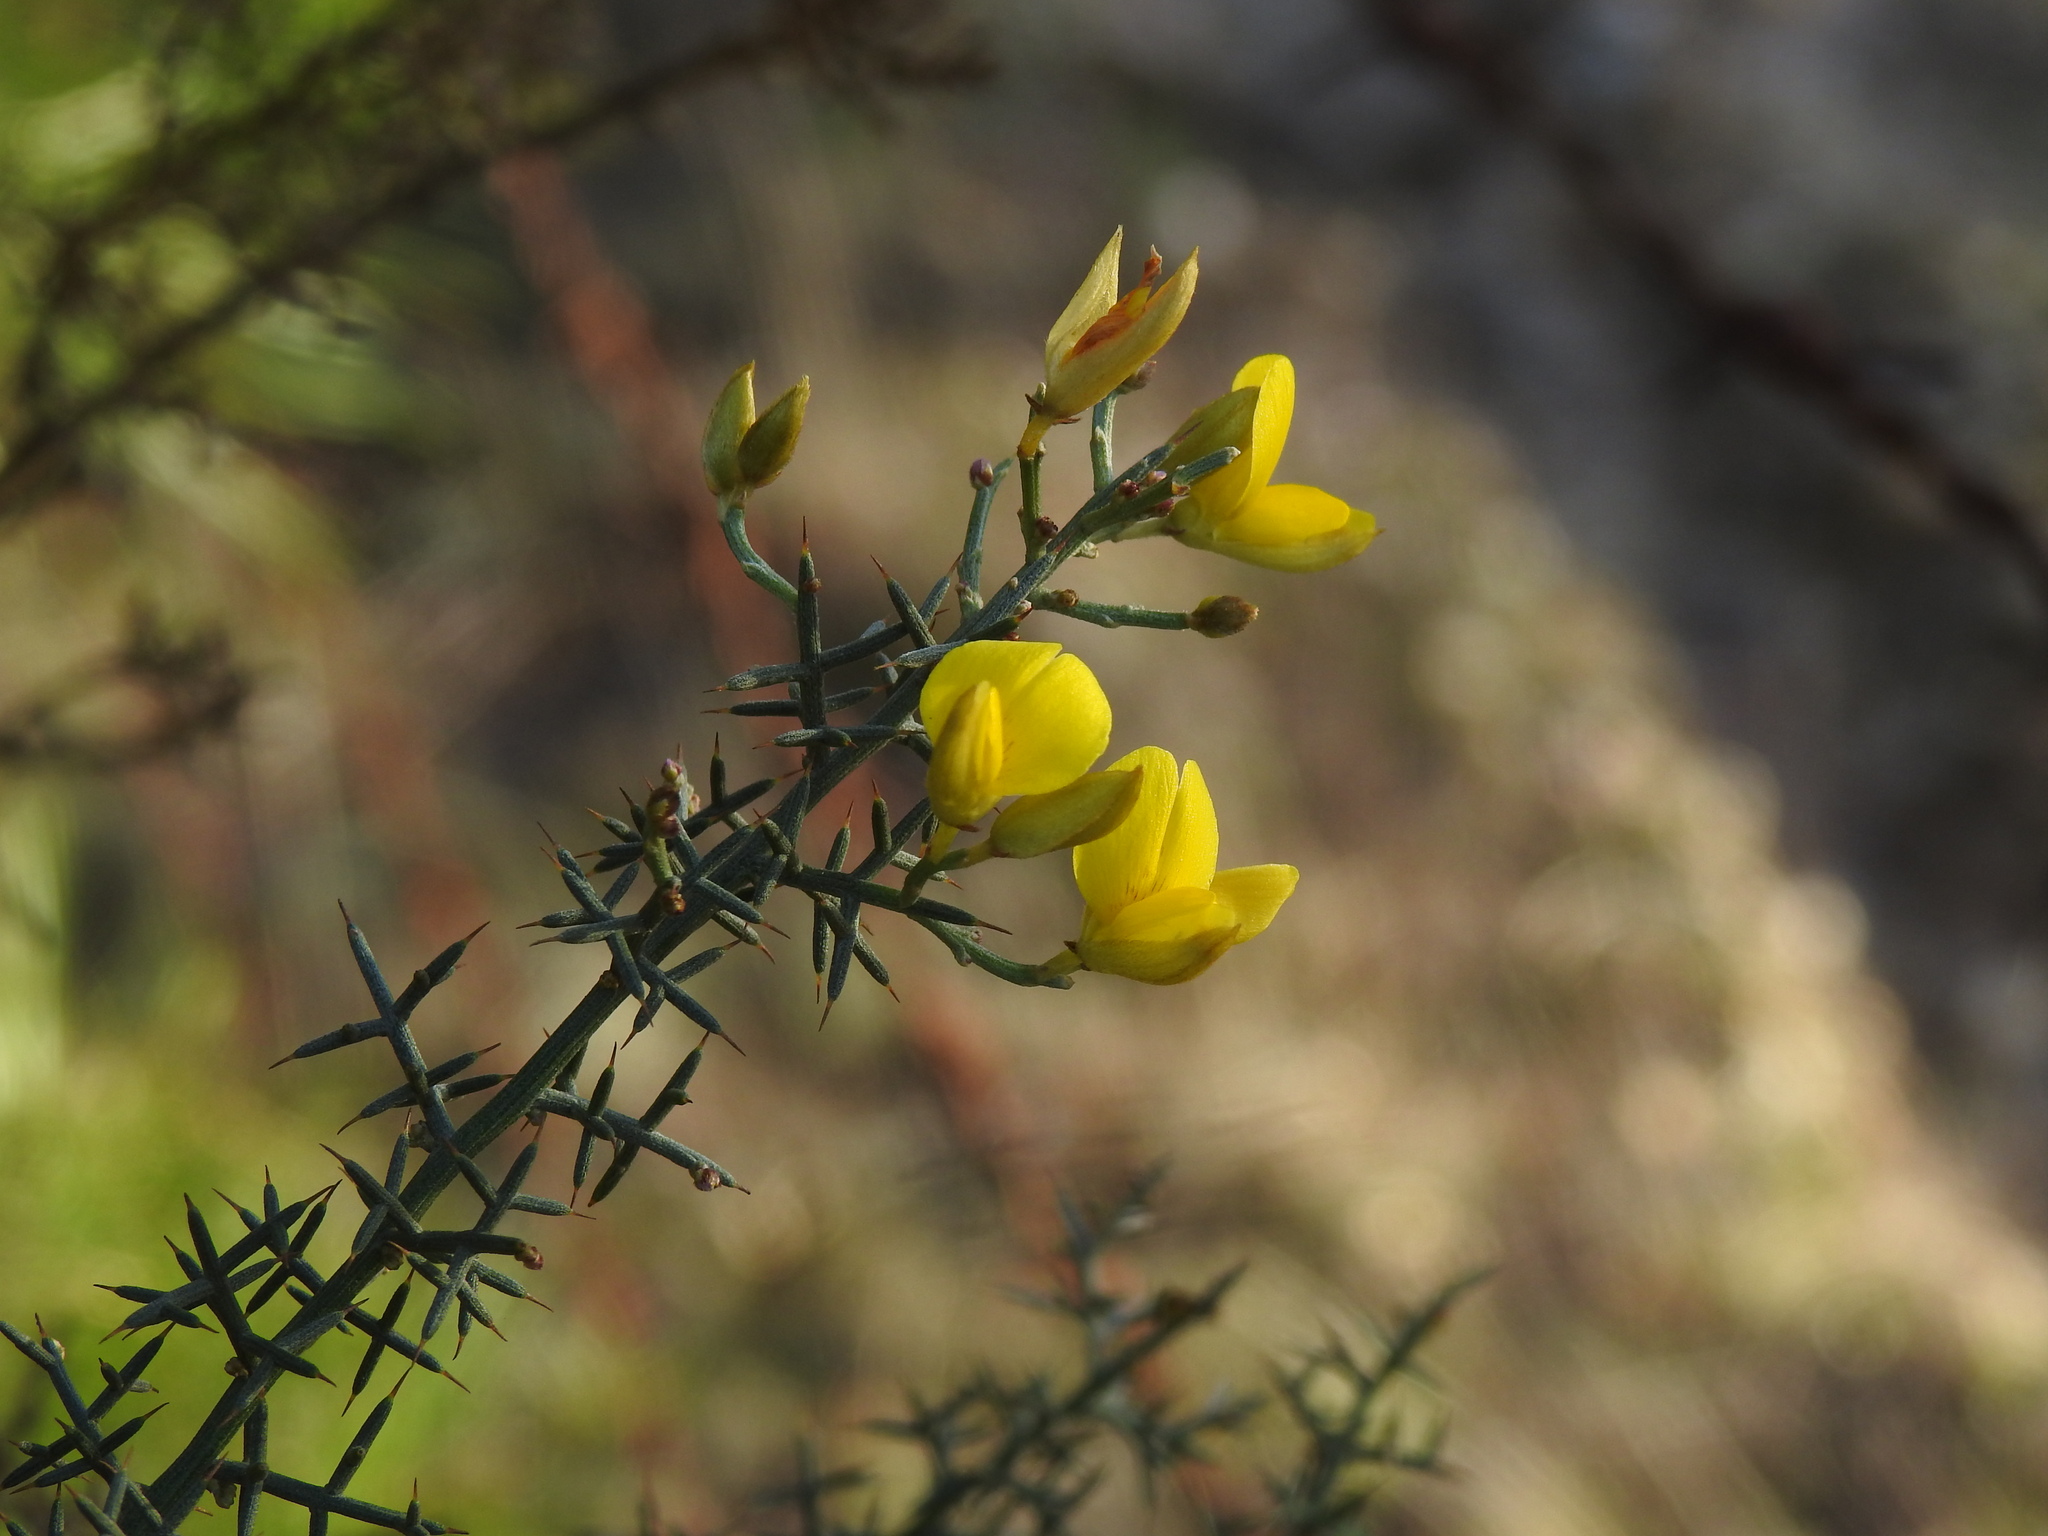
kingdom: Plantae
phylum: Tracheophyta
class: Magnoliopsida
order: Fabales
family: Fabaceae
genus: Stauracanthus
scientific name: Stauracanthus genistoides
